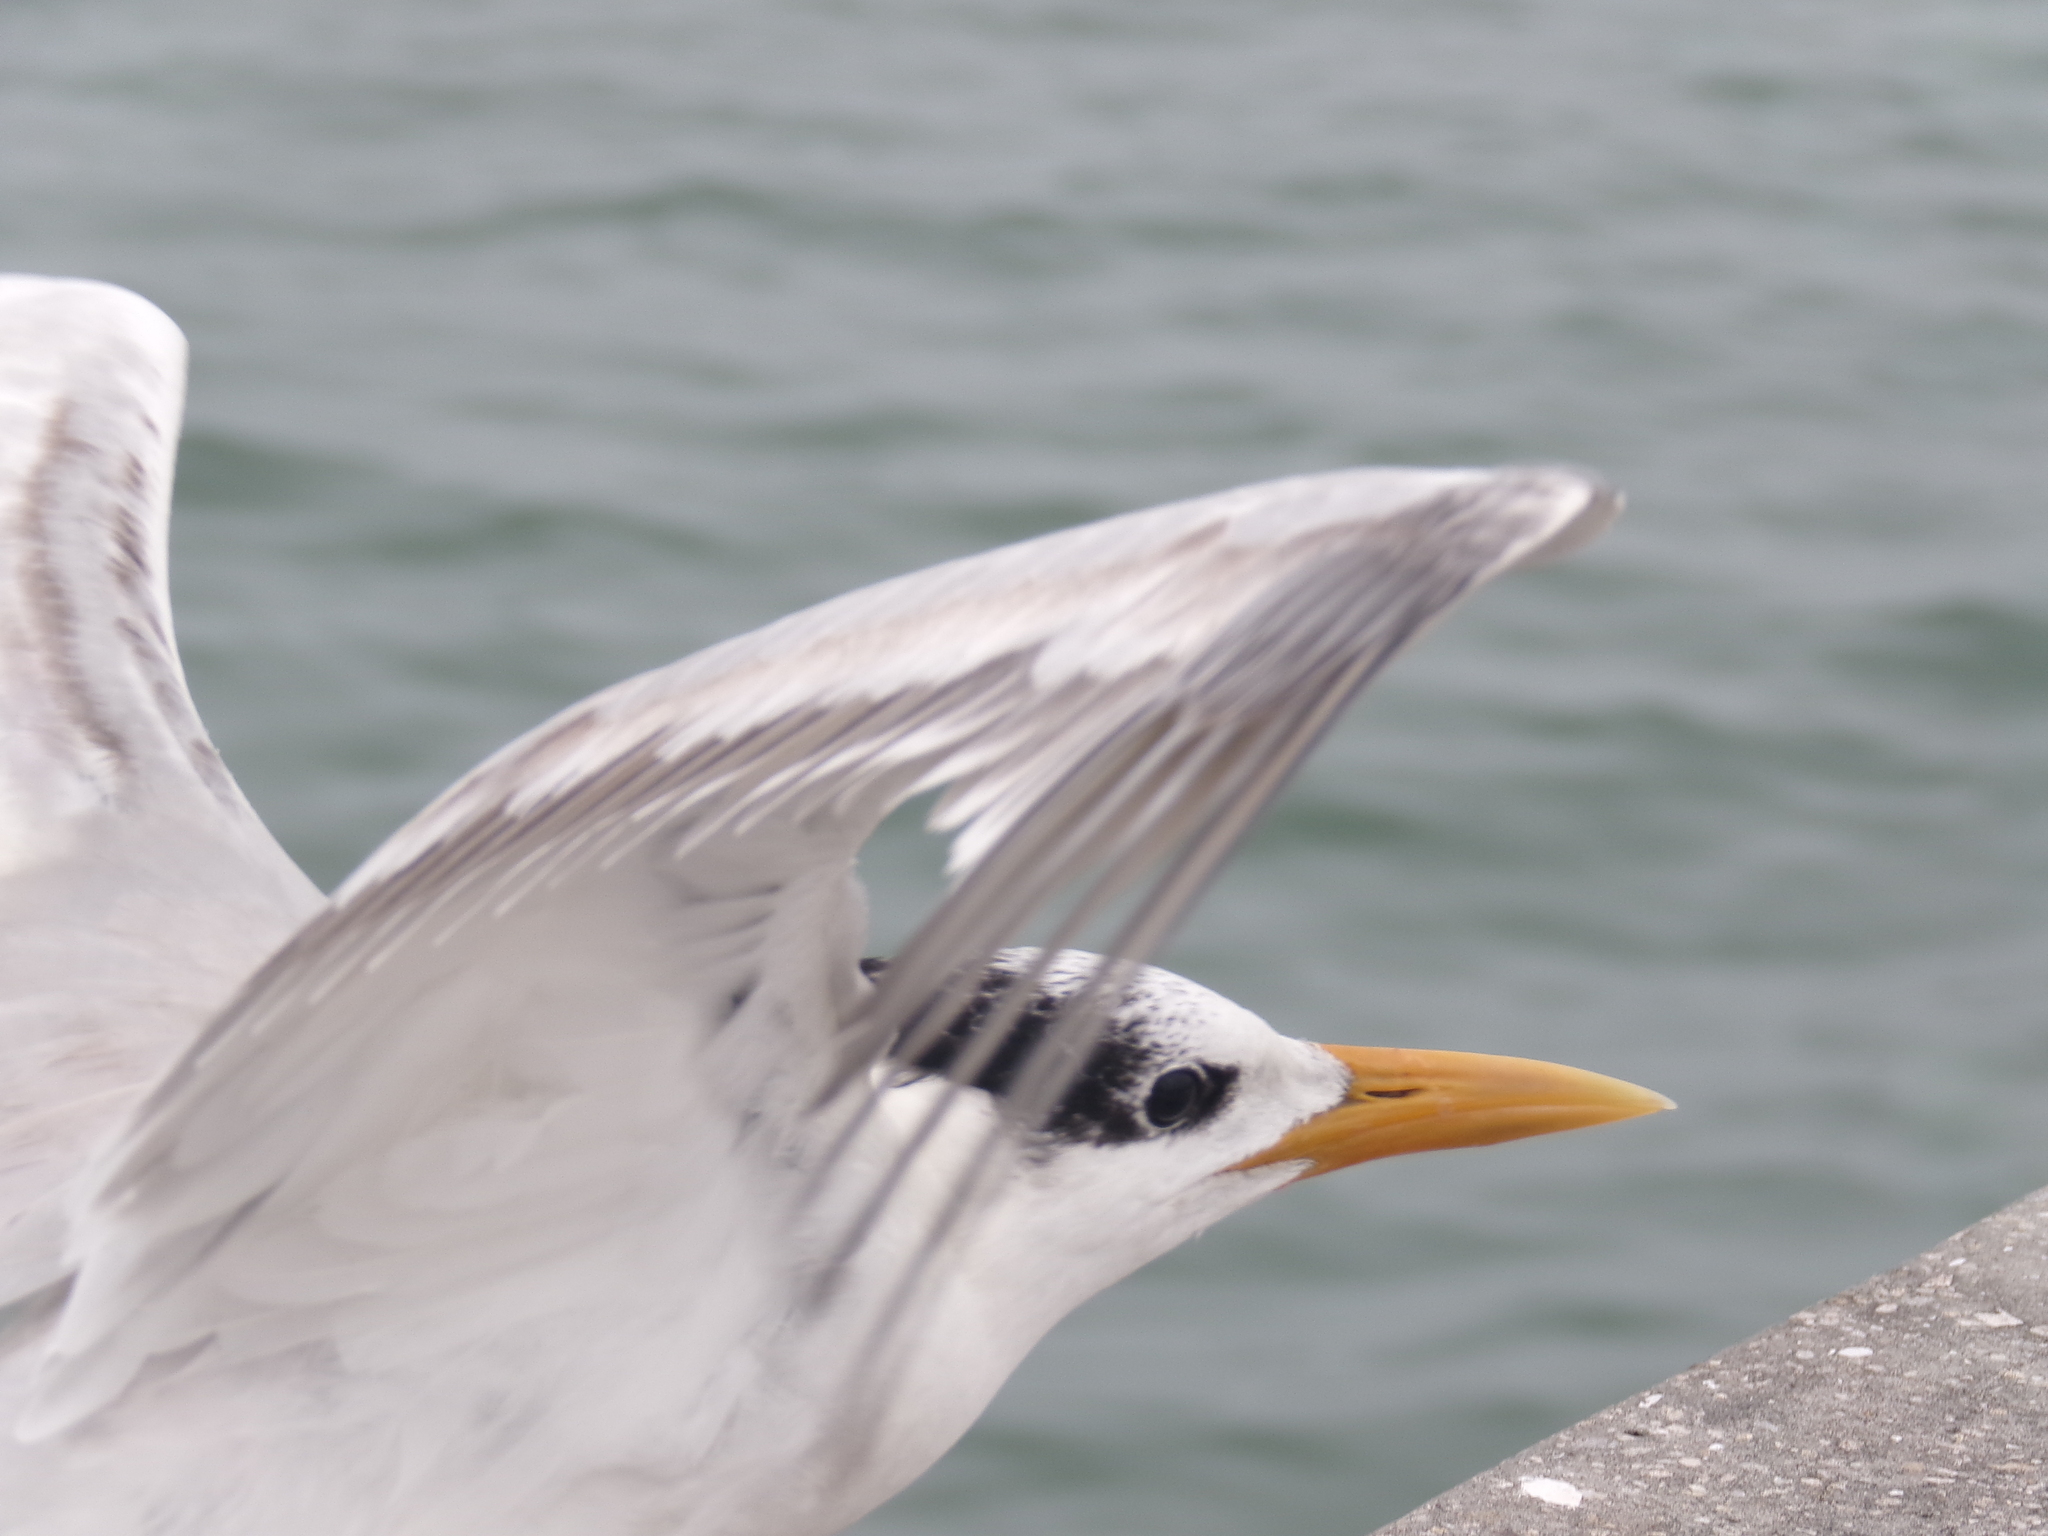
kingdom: Animalia
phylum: Chordata
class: Aves
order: Charadriiformes
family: Laridae
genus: Thalasseus
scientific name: Thalasseus maximus
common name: Royal tern
